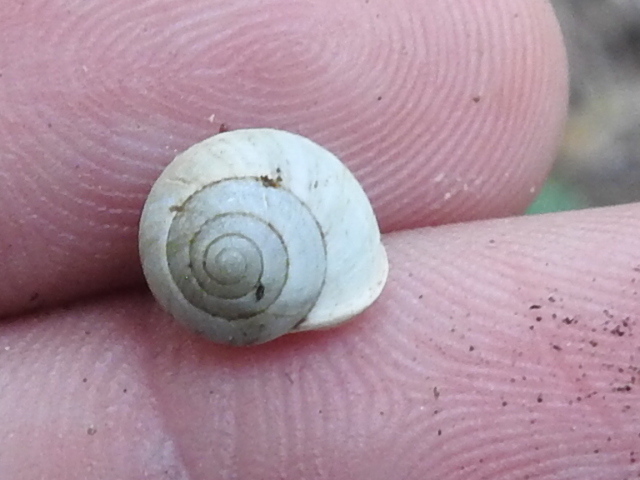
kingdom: Animalia
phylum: Mollusca
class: Gastropoda
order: Cycloneritida
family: Helicinidae
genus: Helicina
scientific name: Helicina orbiculata
